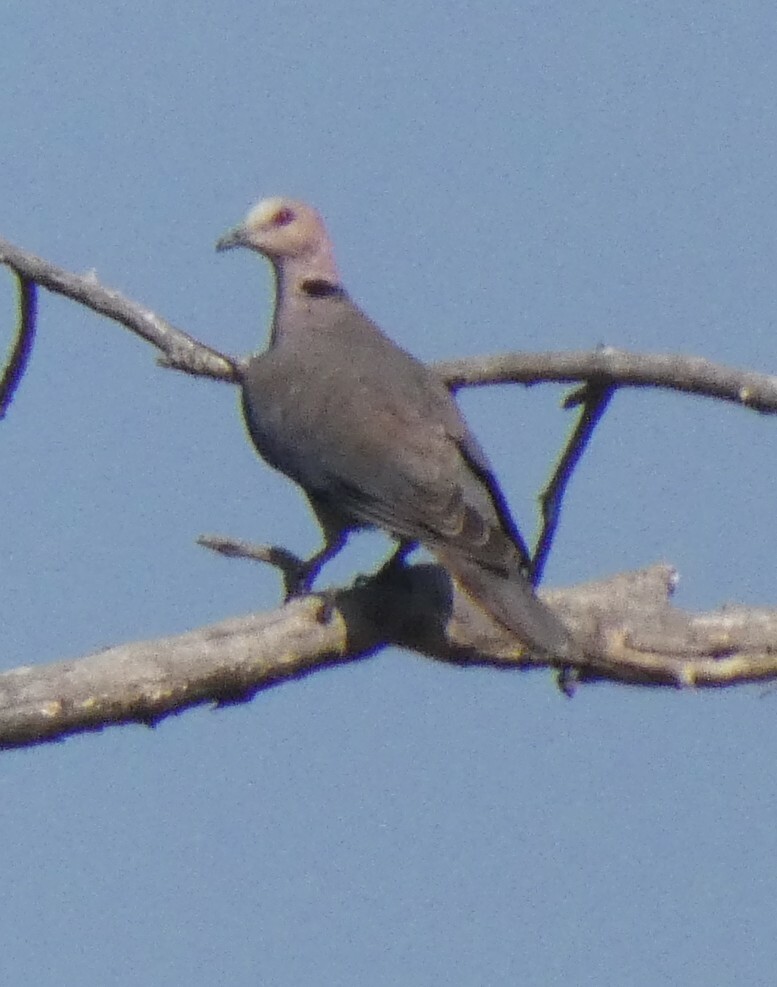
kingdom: Animalia
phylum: Chordata
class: Aves
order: Columbiformes
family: Columbidae
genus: Streptopelia
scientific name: Streptopelia semitorquata
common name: Red-eyed dove
